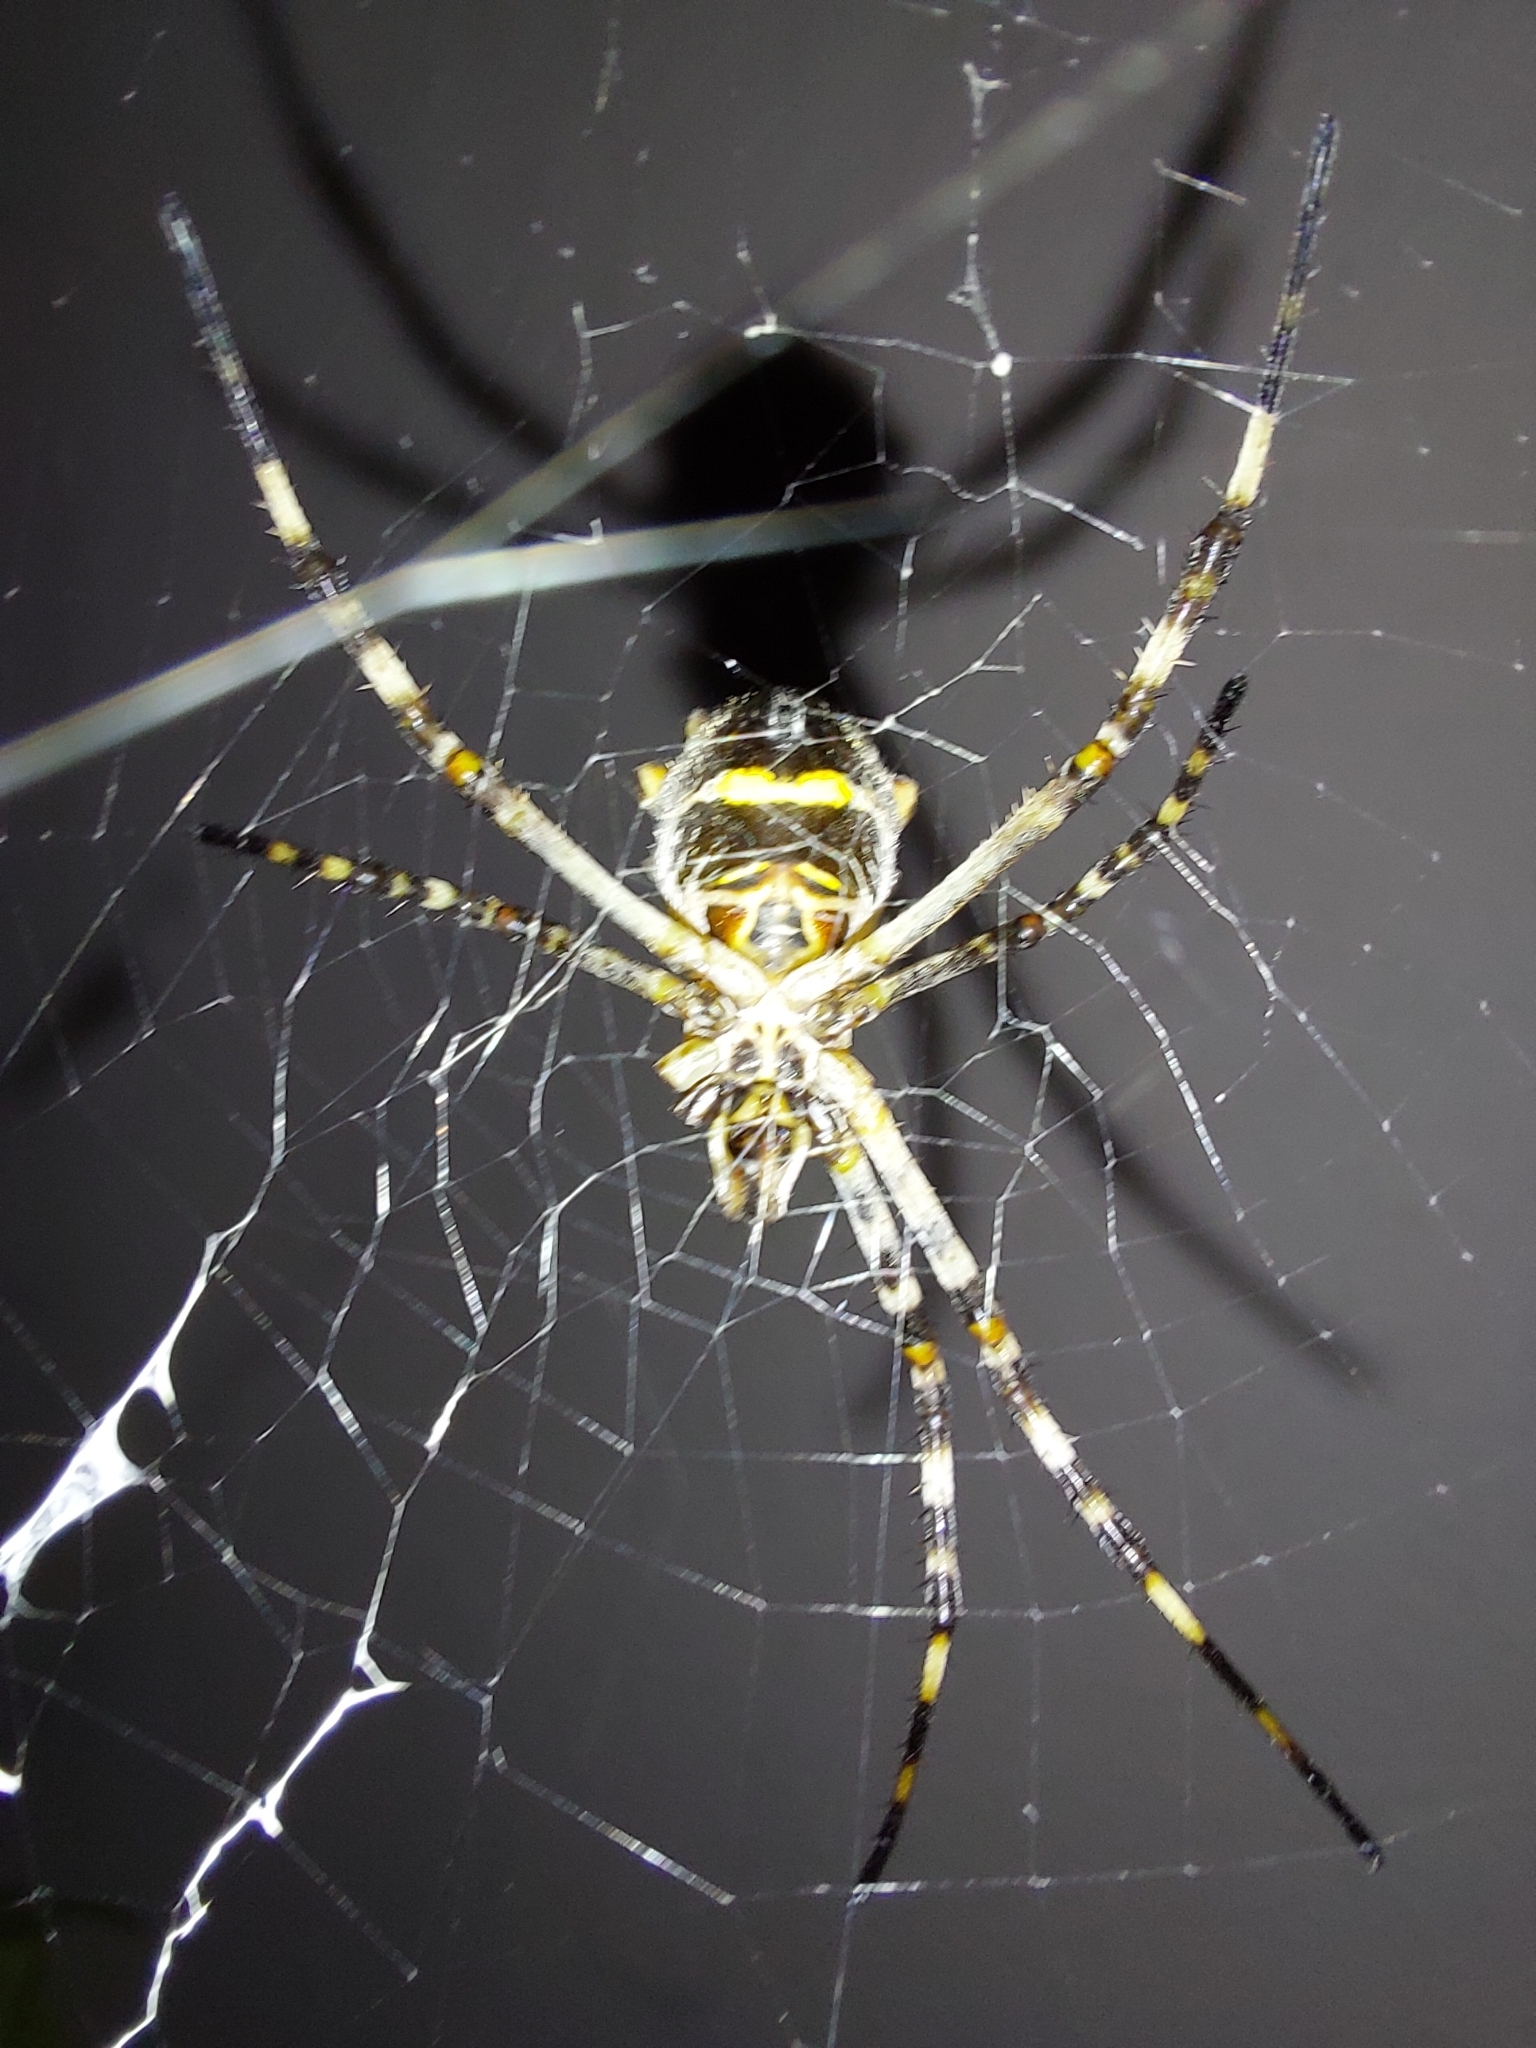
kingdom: Animalia
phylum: Arthropoda
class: Arachnida
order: Araneae
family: Araneidae
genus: Argiope
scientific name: Argiope argentata
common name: Orb weavers
